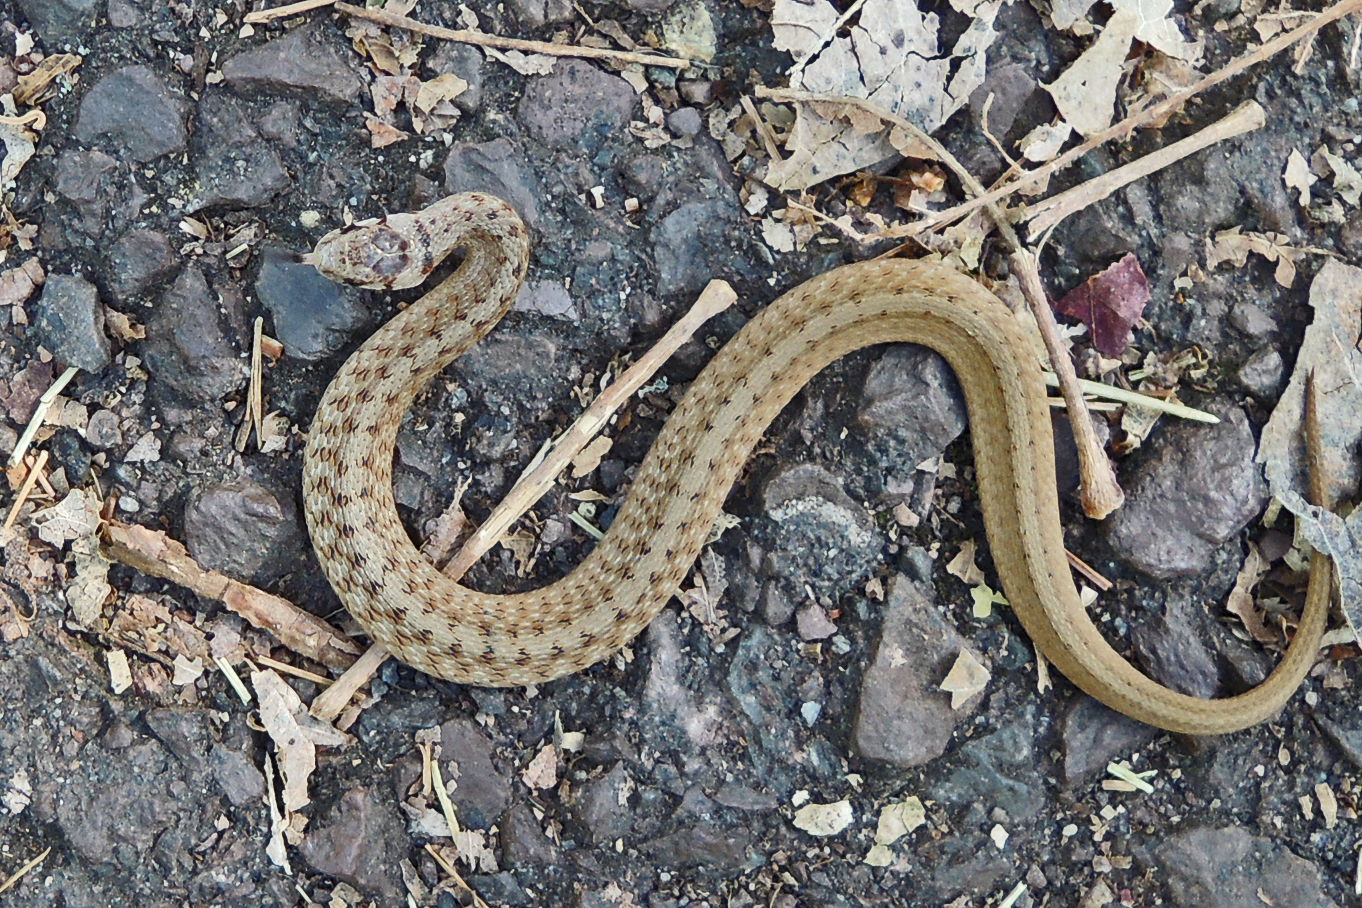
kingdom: Animalia
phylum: Chordata
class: Squamata
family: Colubridae
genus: Storeria
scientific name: Storeria dekayi
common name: (dekay’s) brown snake
